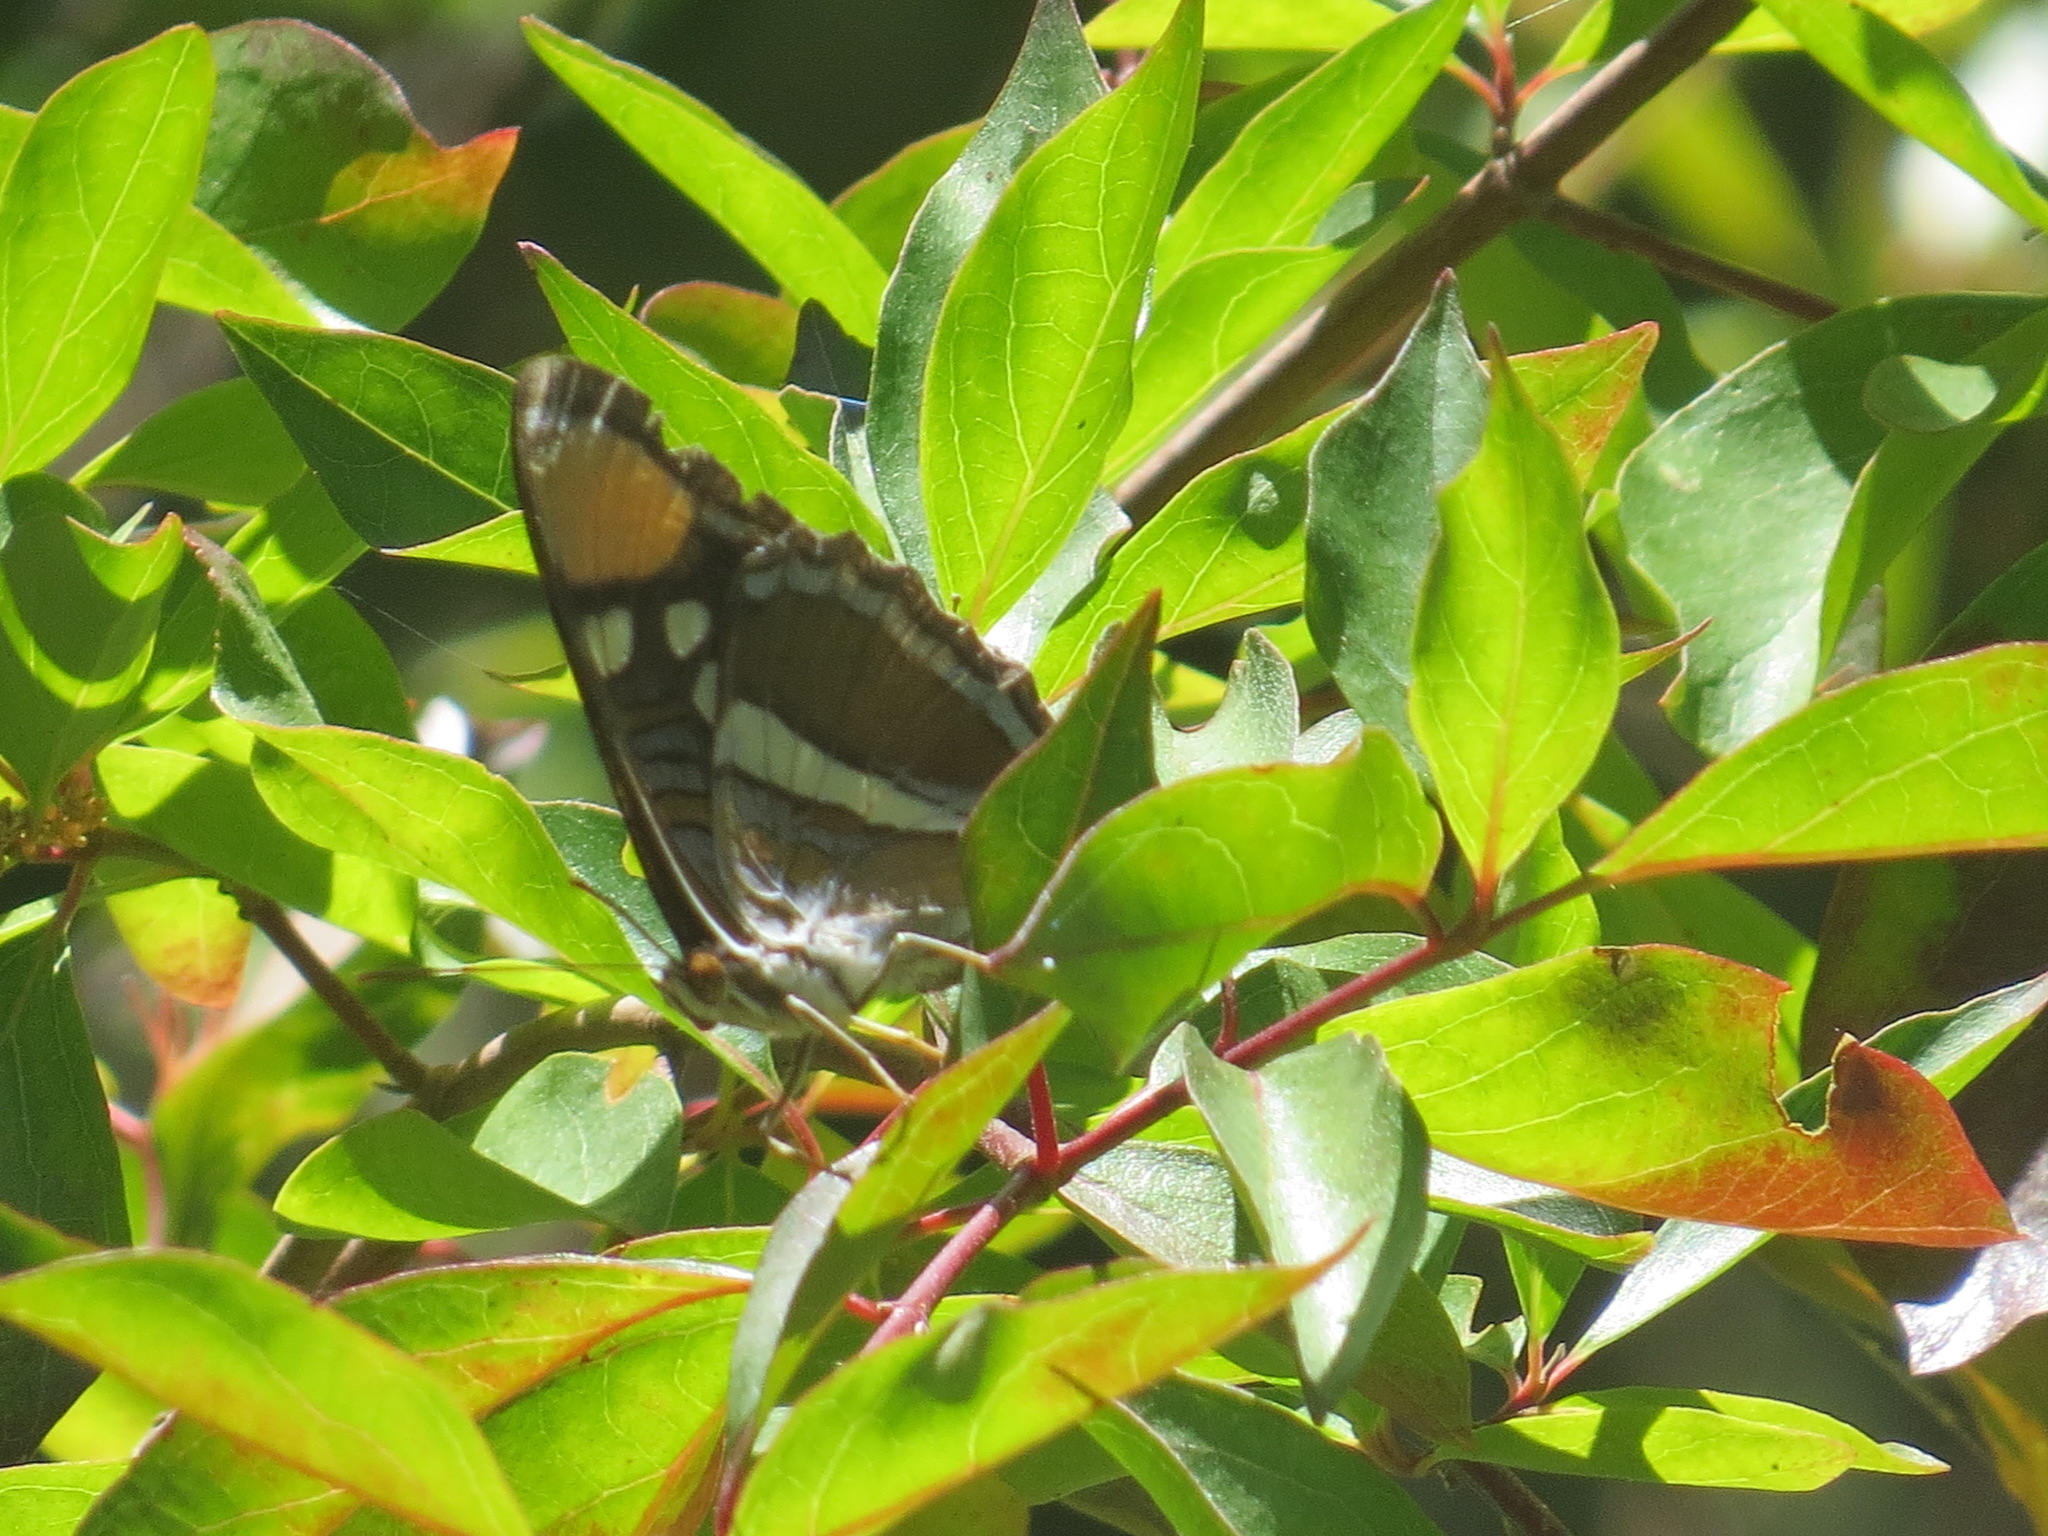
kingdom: Animalia
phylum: Arthropoda
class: Insecta
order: Lepidoptera
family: Nymphalidae
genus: Limenitis
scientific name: Limenitis bredowii
